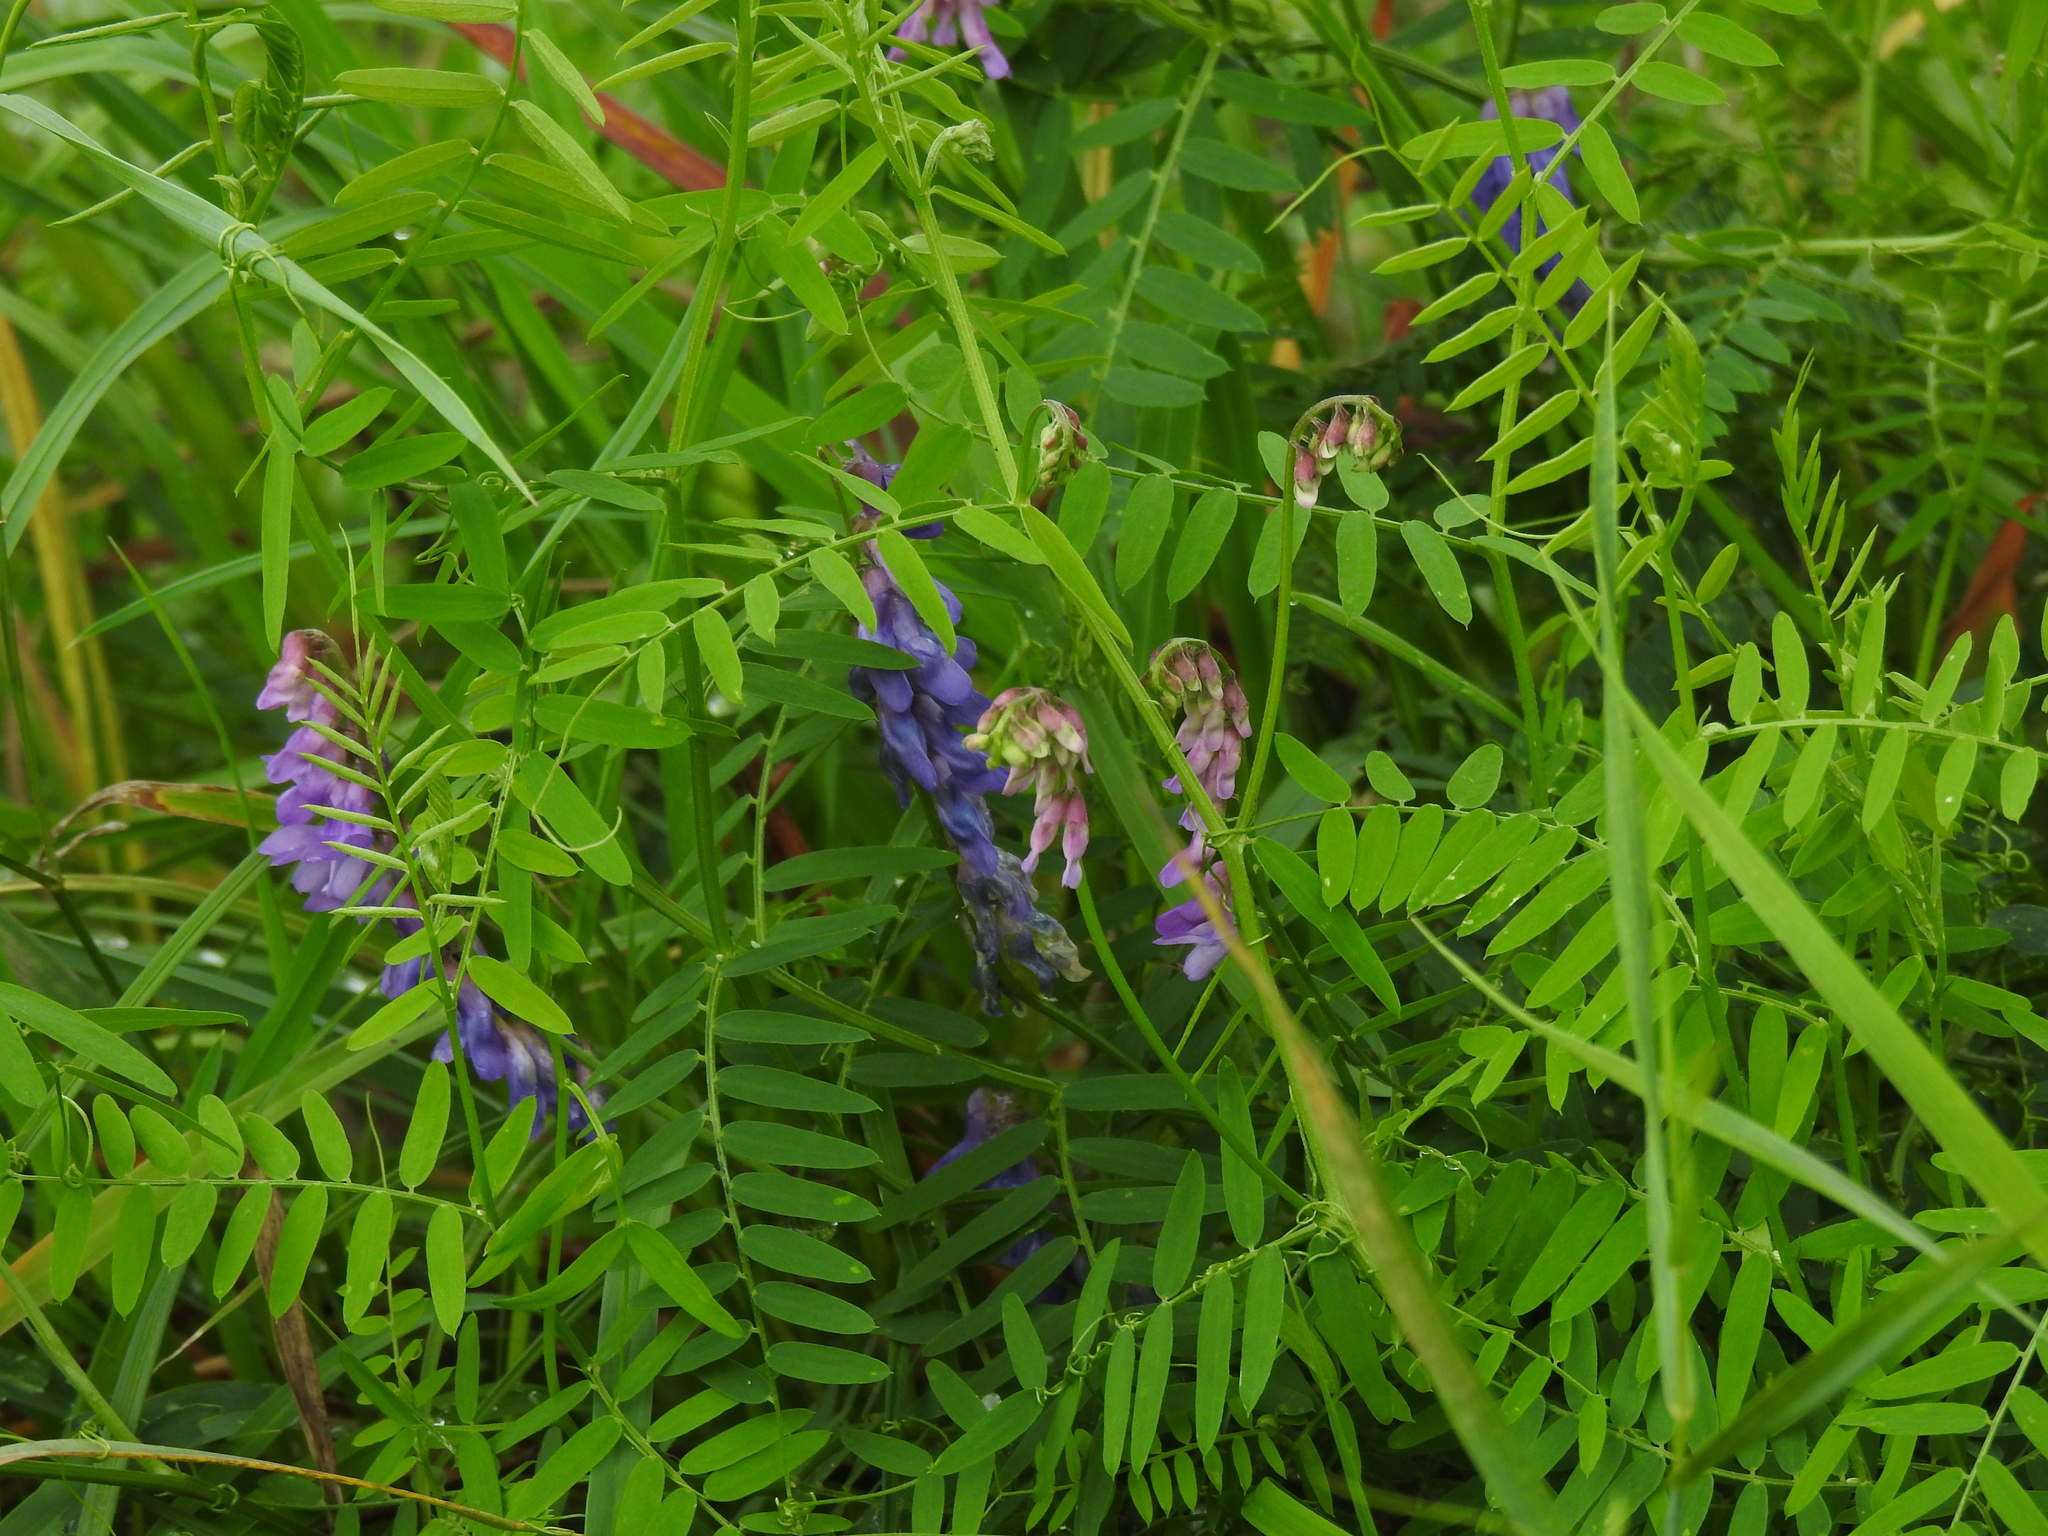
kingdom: Plantae
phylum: Tracheophyta
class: Magnoliopsida
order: Fabales
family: Fabaceae
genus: Vicia
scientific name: Vicia cracca
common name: Bird vetch
